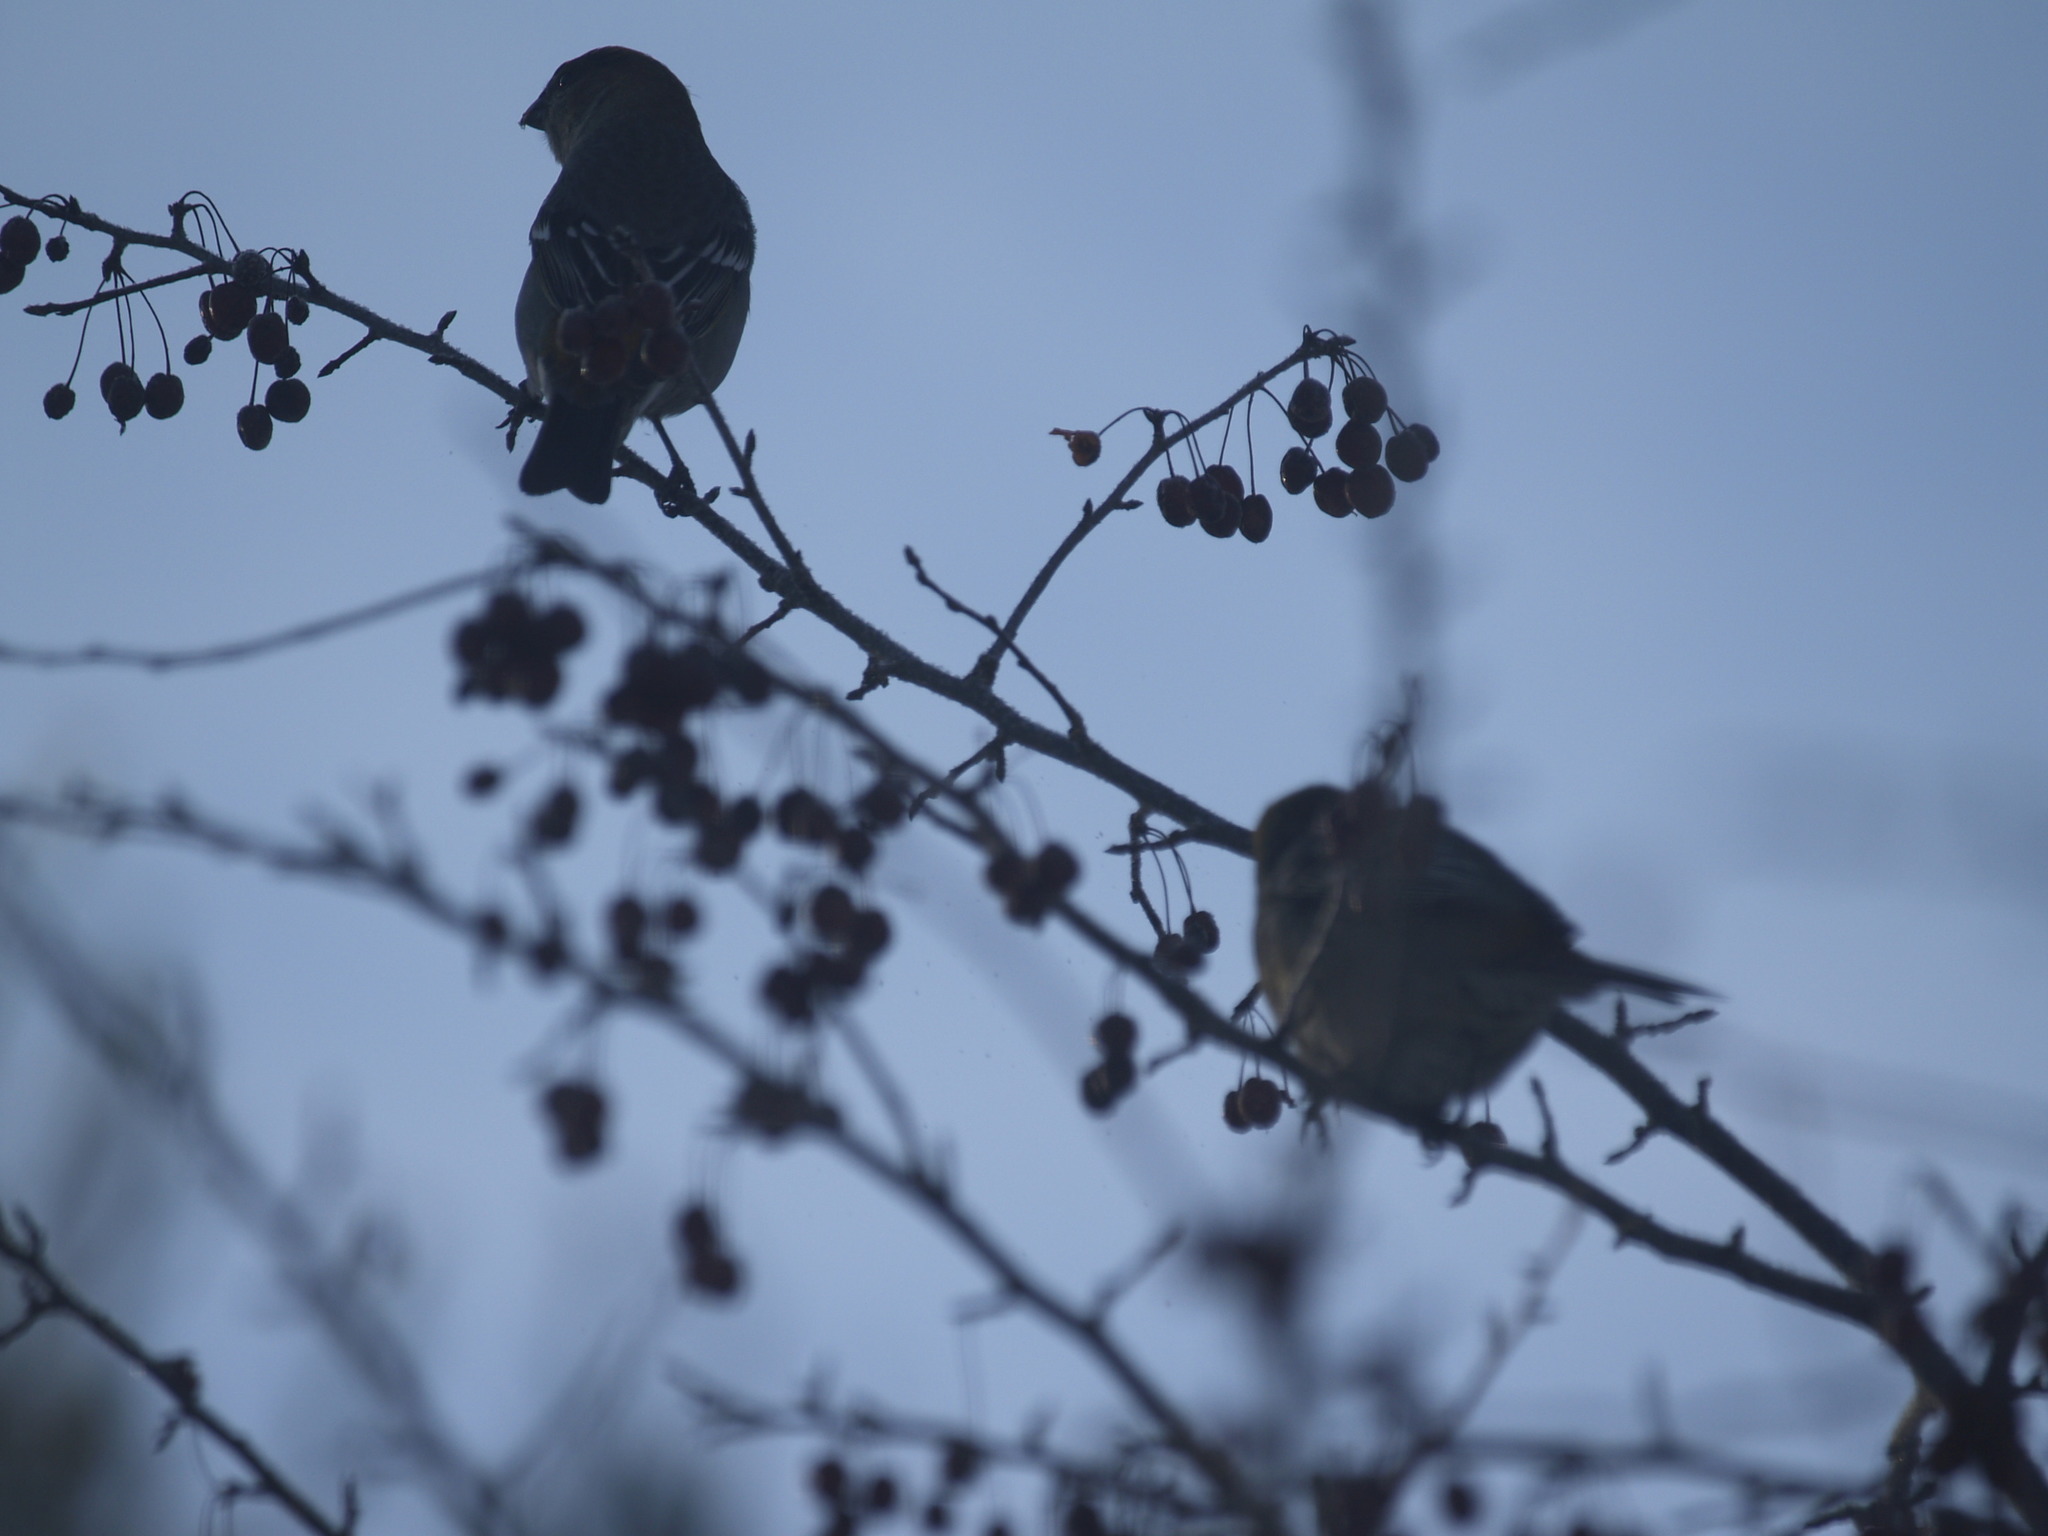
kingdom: Animalia
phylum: Chordata
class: Aves
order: Passeriformes
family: Fringillidae
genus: Pinicola
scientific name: Pinicola enucleator
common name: Pine grosbeak
